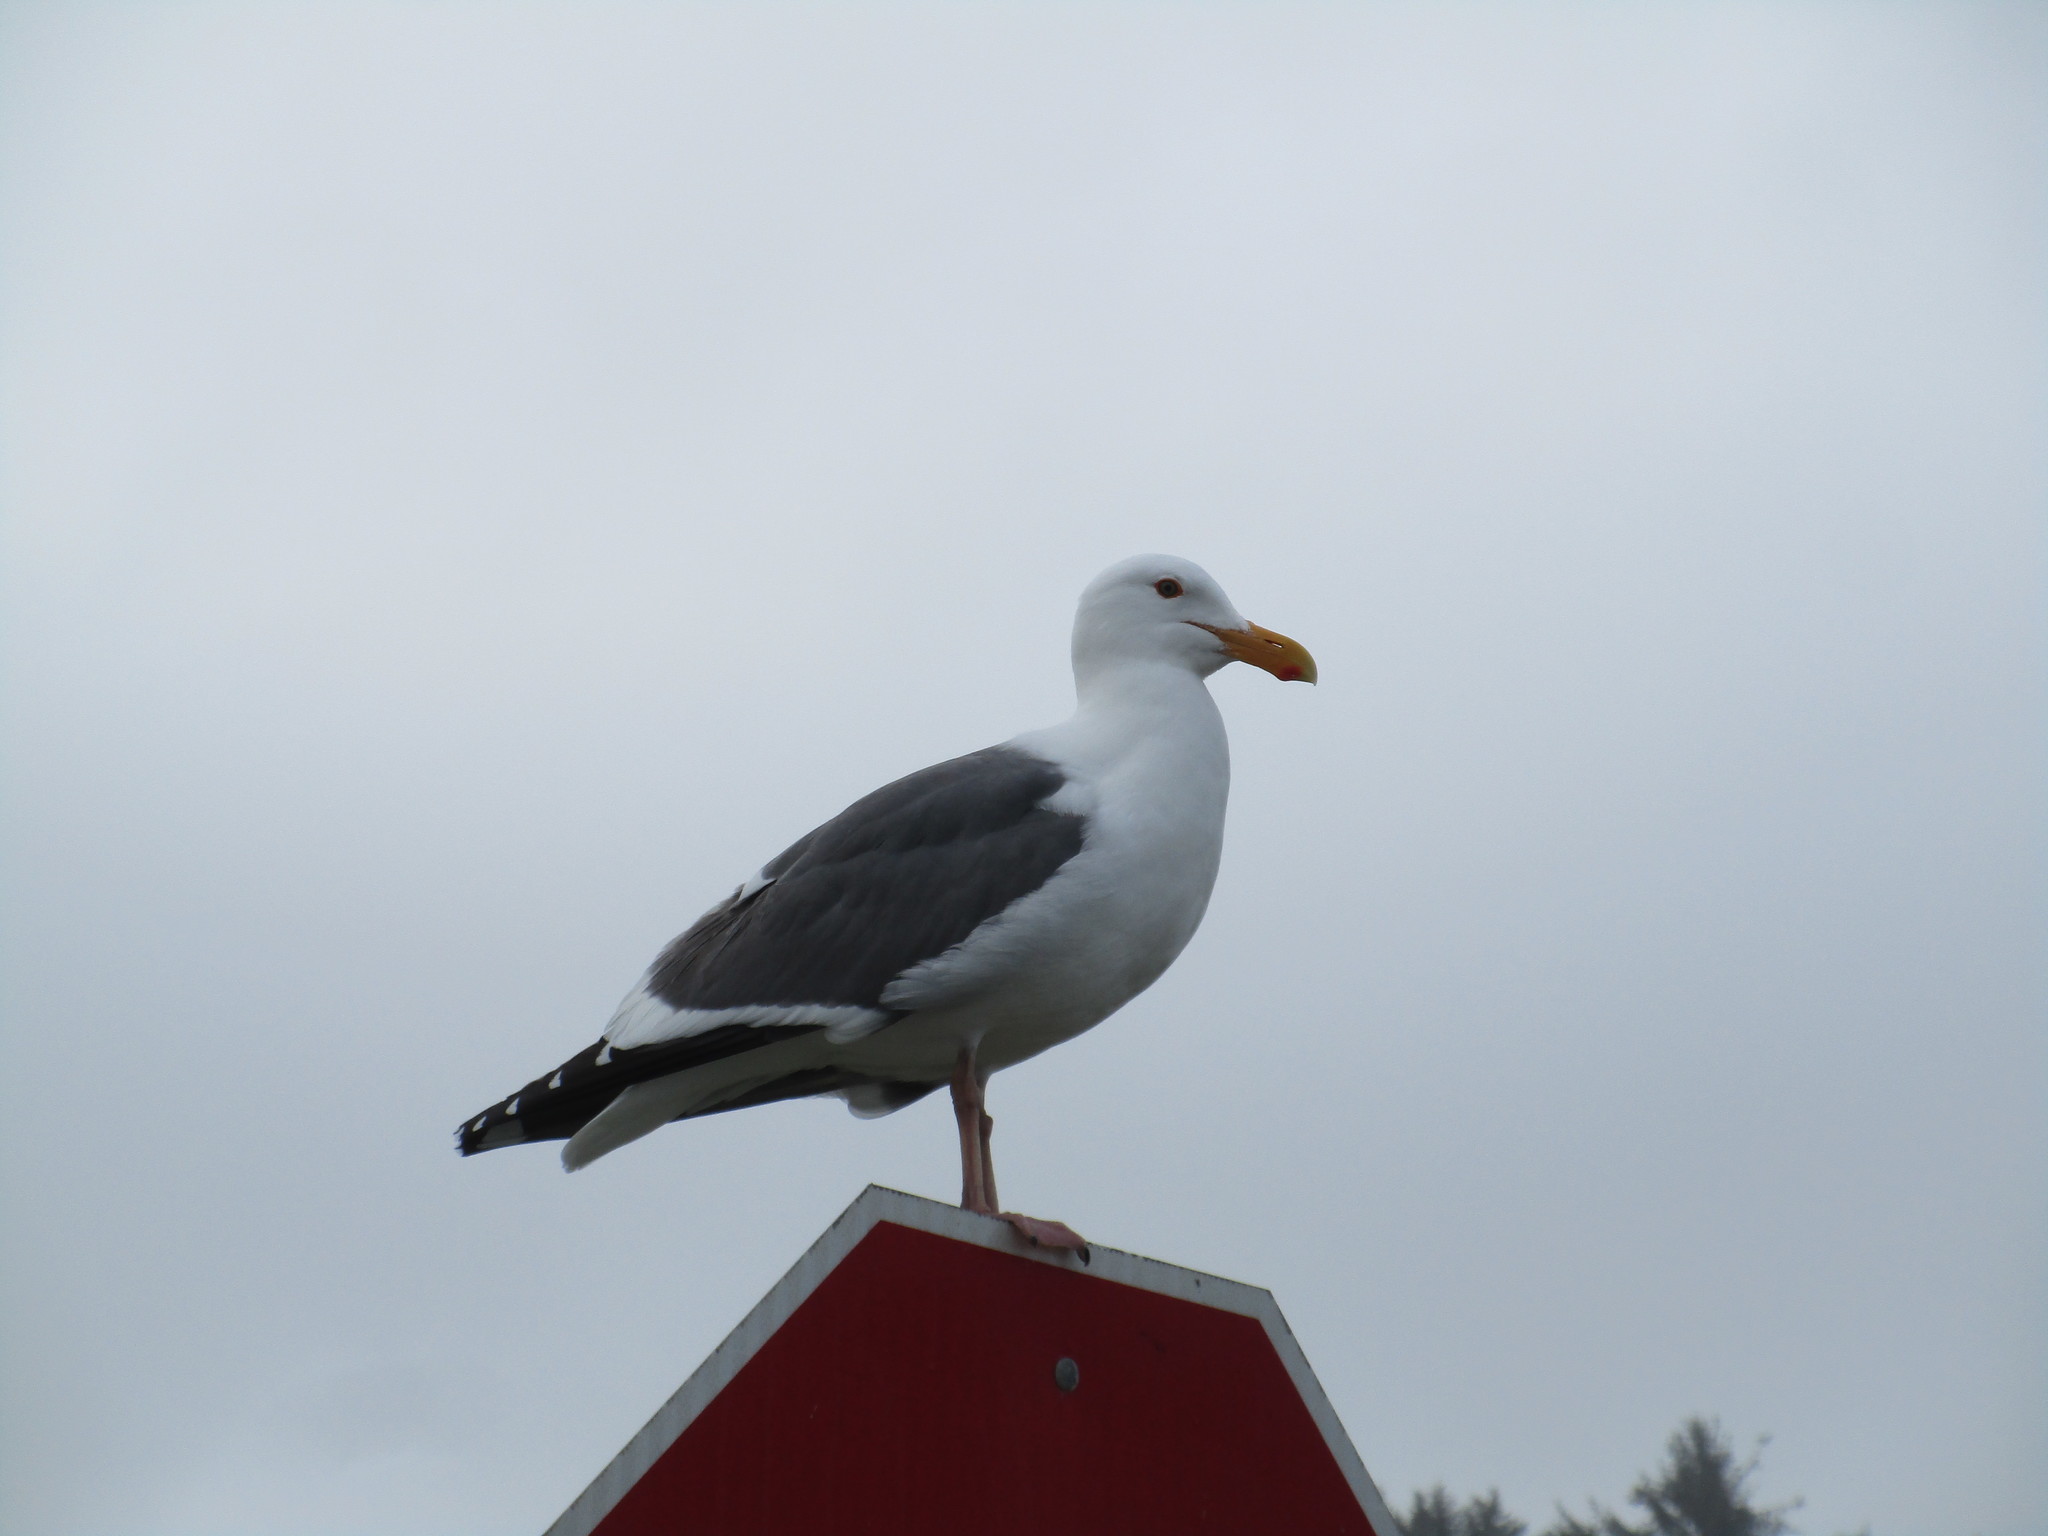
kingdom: Animalia
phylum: Chordata
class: Aves
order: Charadriiformes
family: Laridae
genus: Larus
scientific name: Larus occidentalis
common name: Western gull
